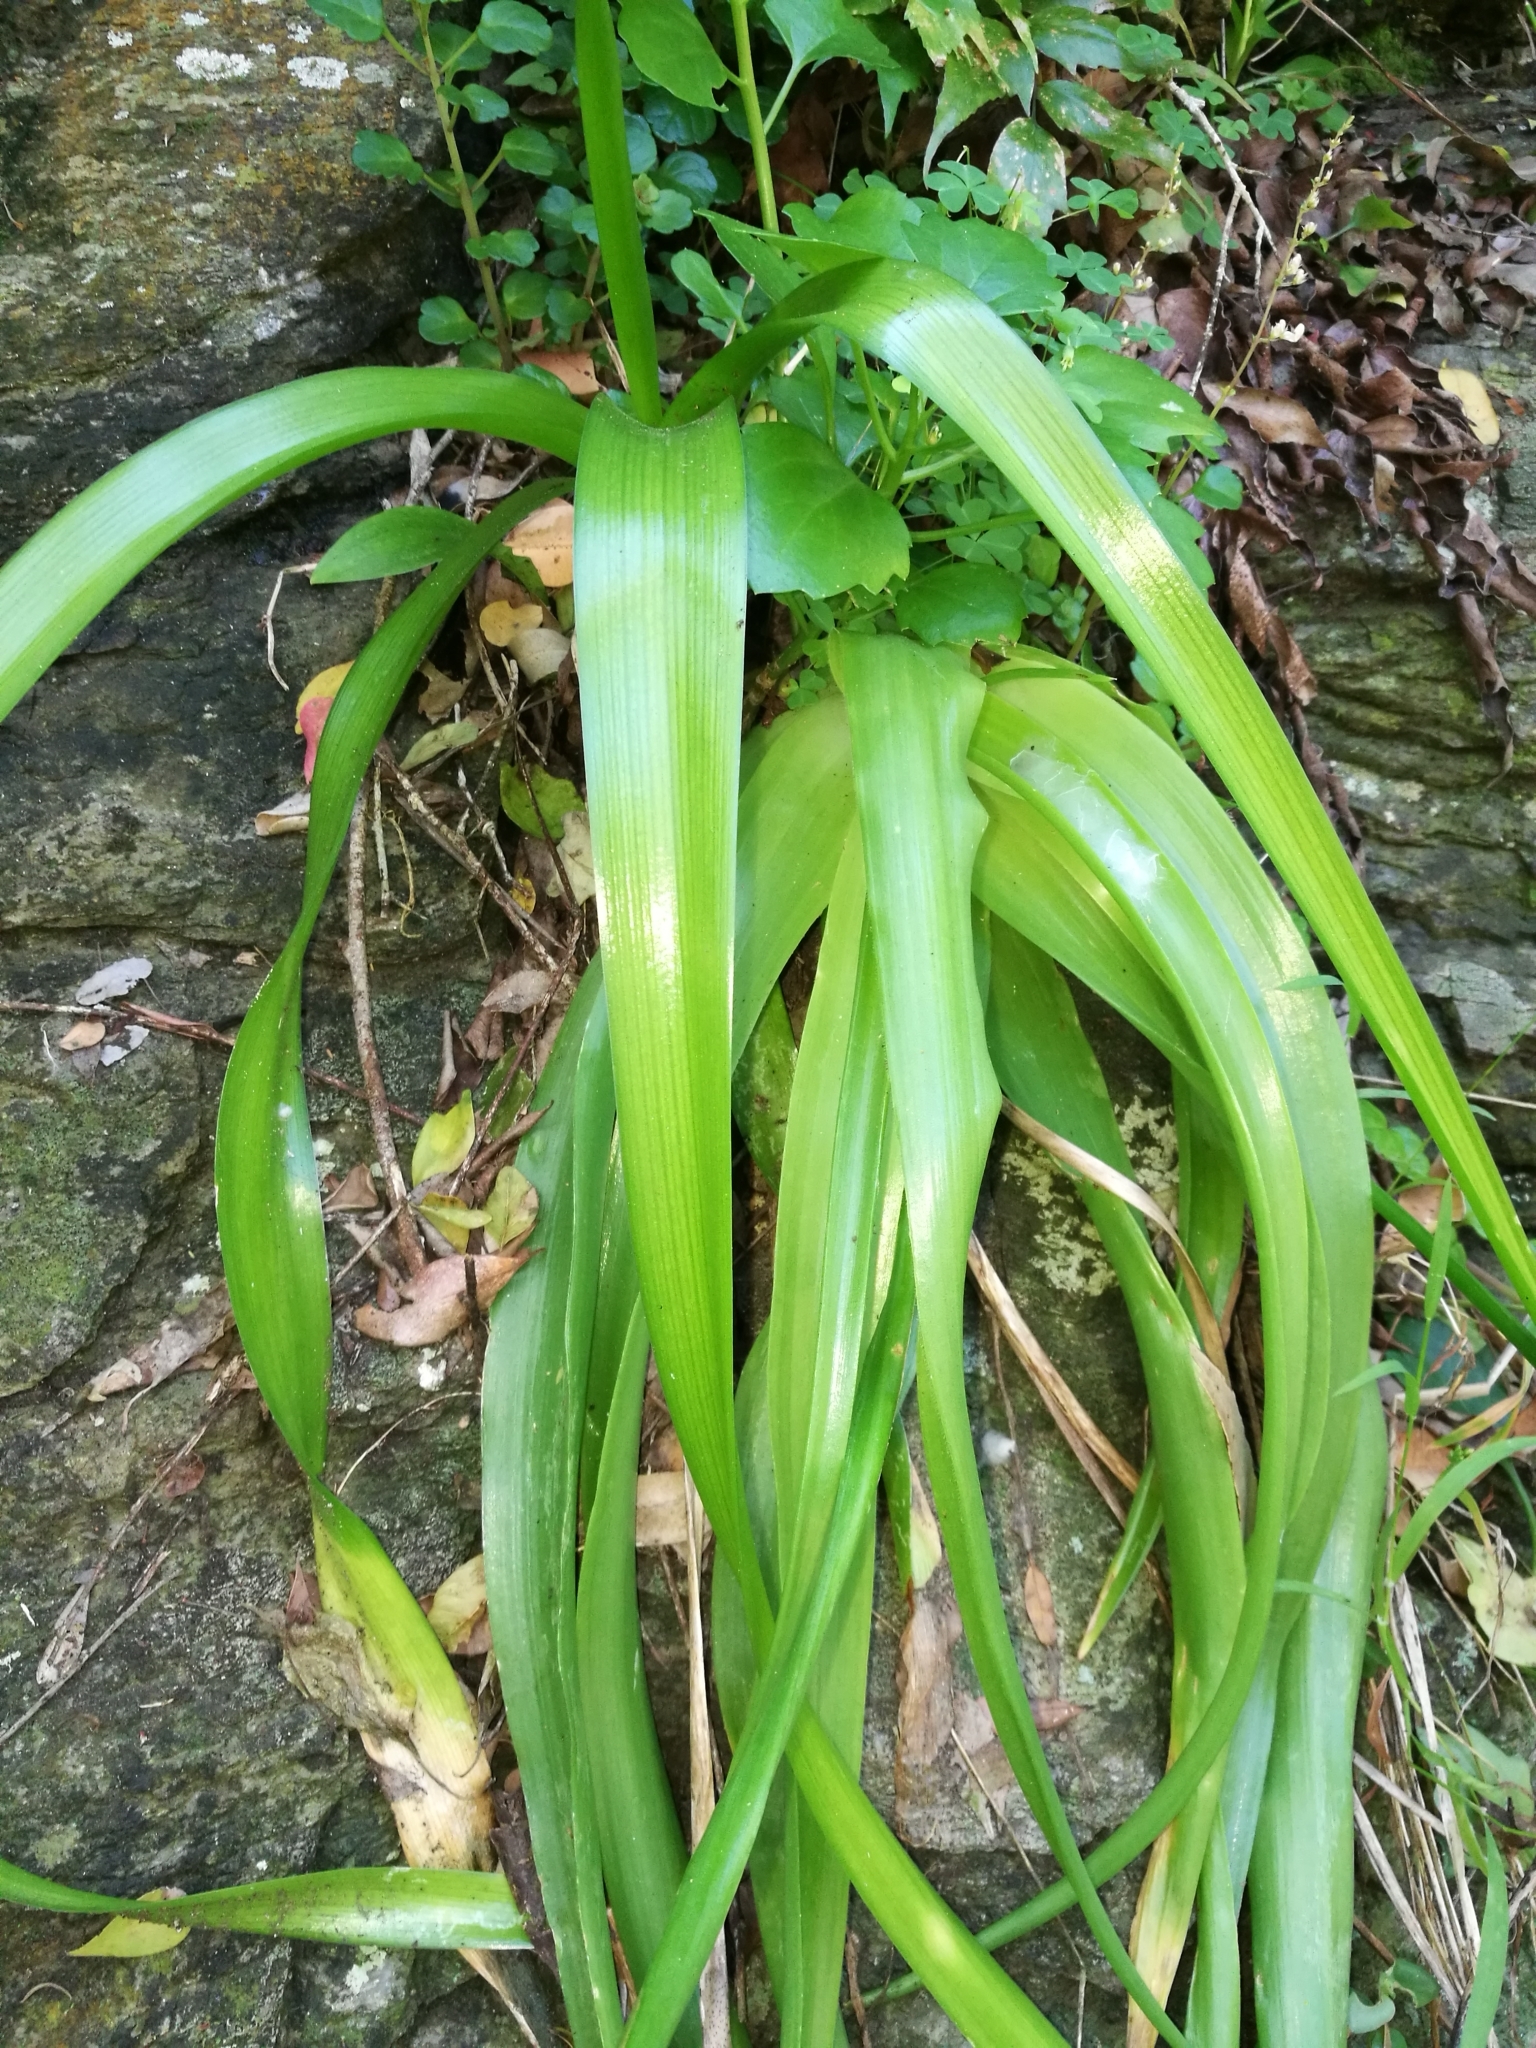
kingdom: Plantae
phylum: Tracheophyta
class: Liliopsida
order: Asparagales
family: Asphodelaceae
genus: Bulbine
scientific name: Bulbine latifolia
